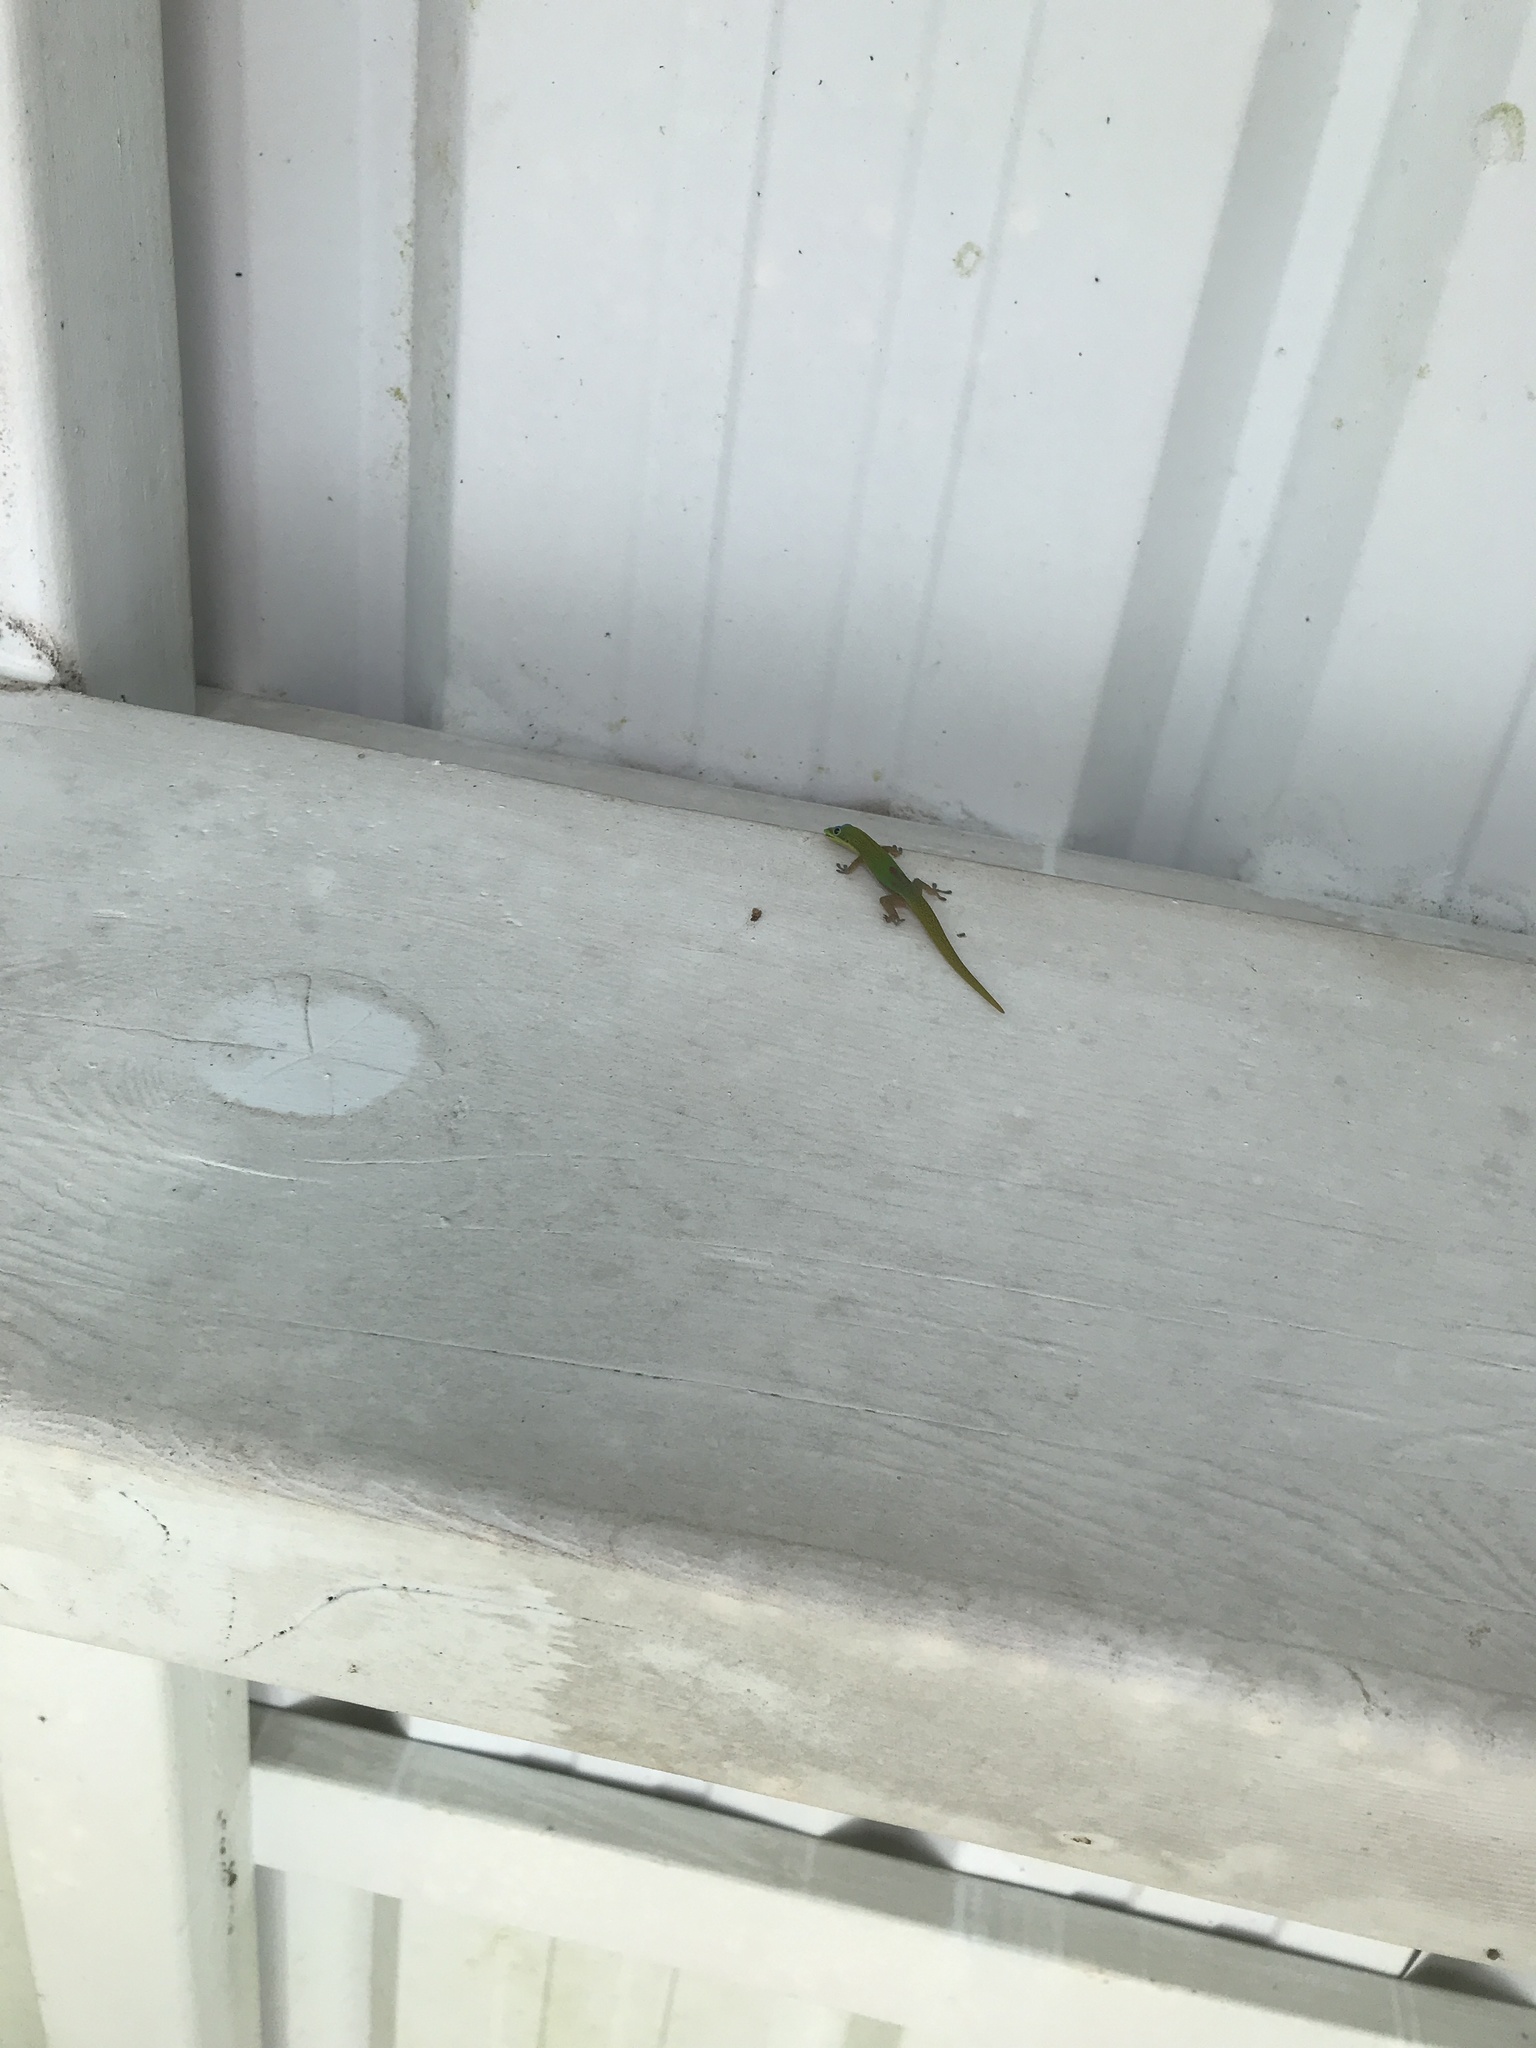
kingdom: Animalia
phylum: Chordata
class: Squamata
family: Gekkonidae
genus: Phelsuma
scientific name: Phelsuma laticauda
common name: Gold dust day gecko
